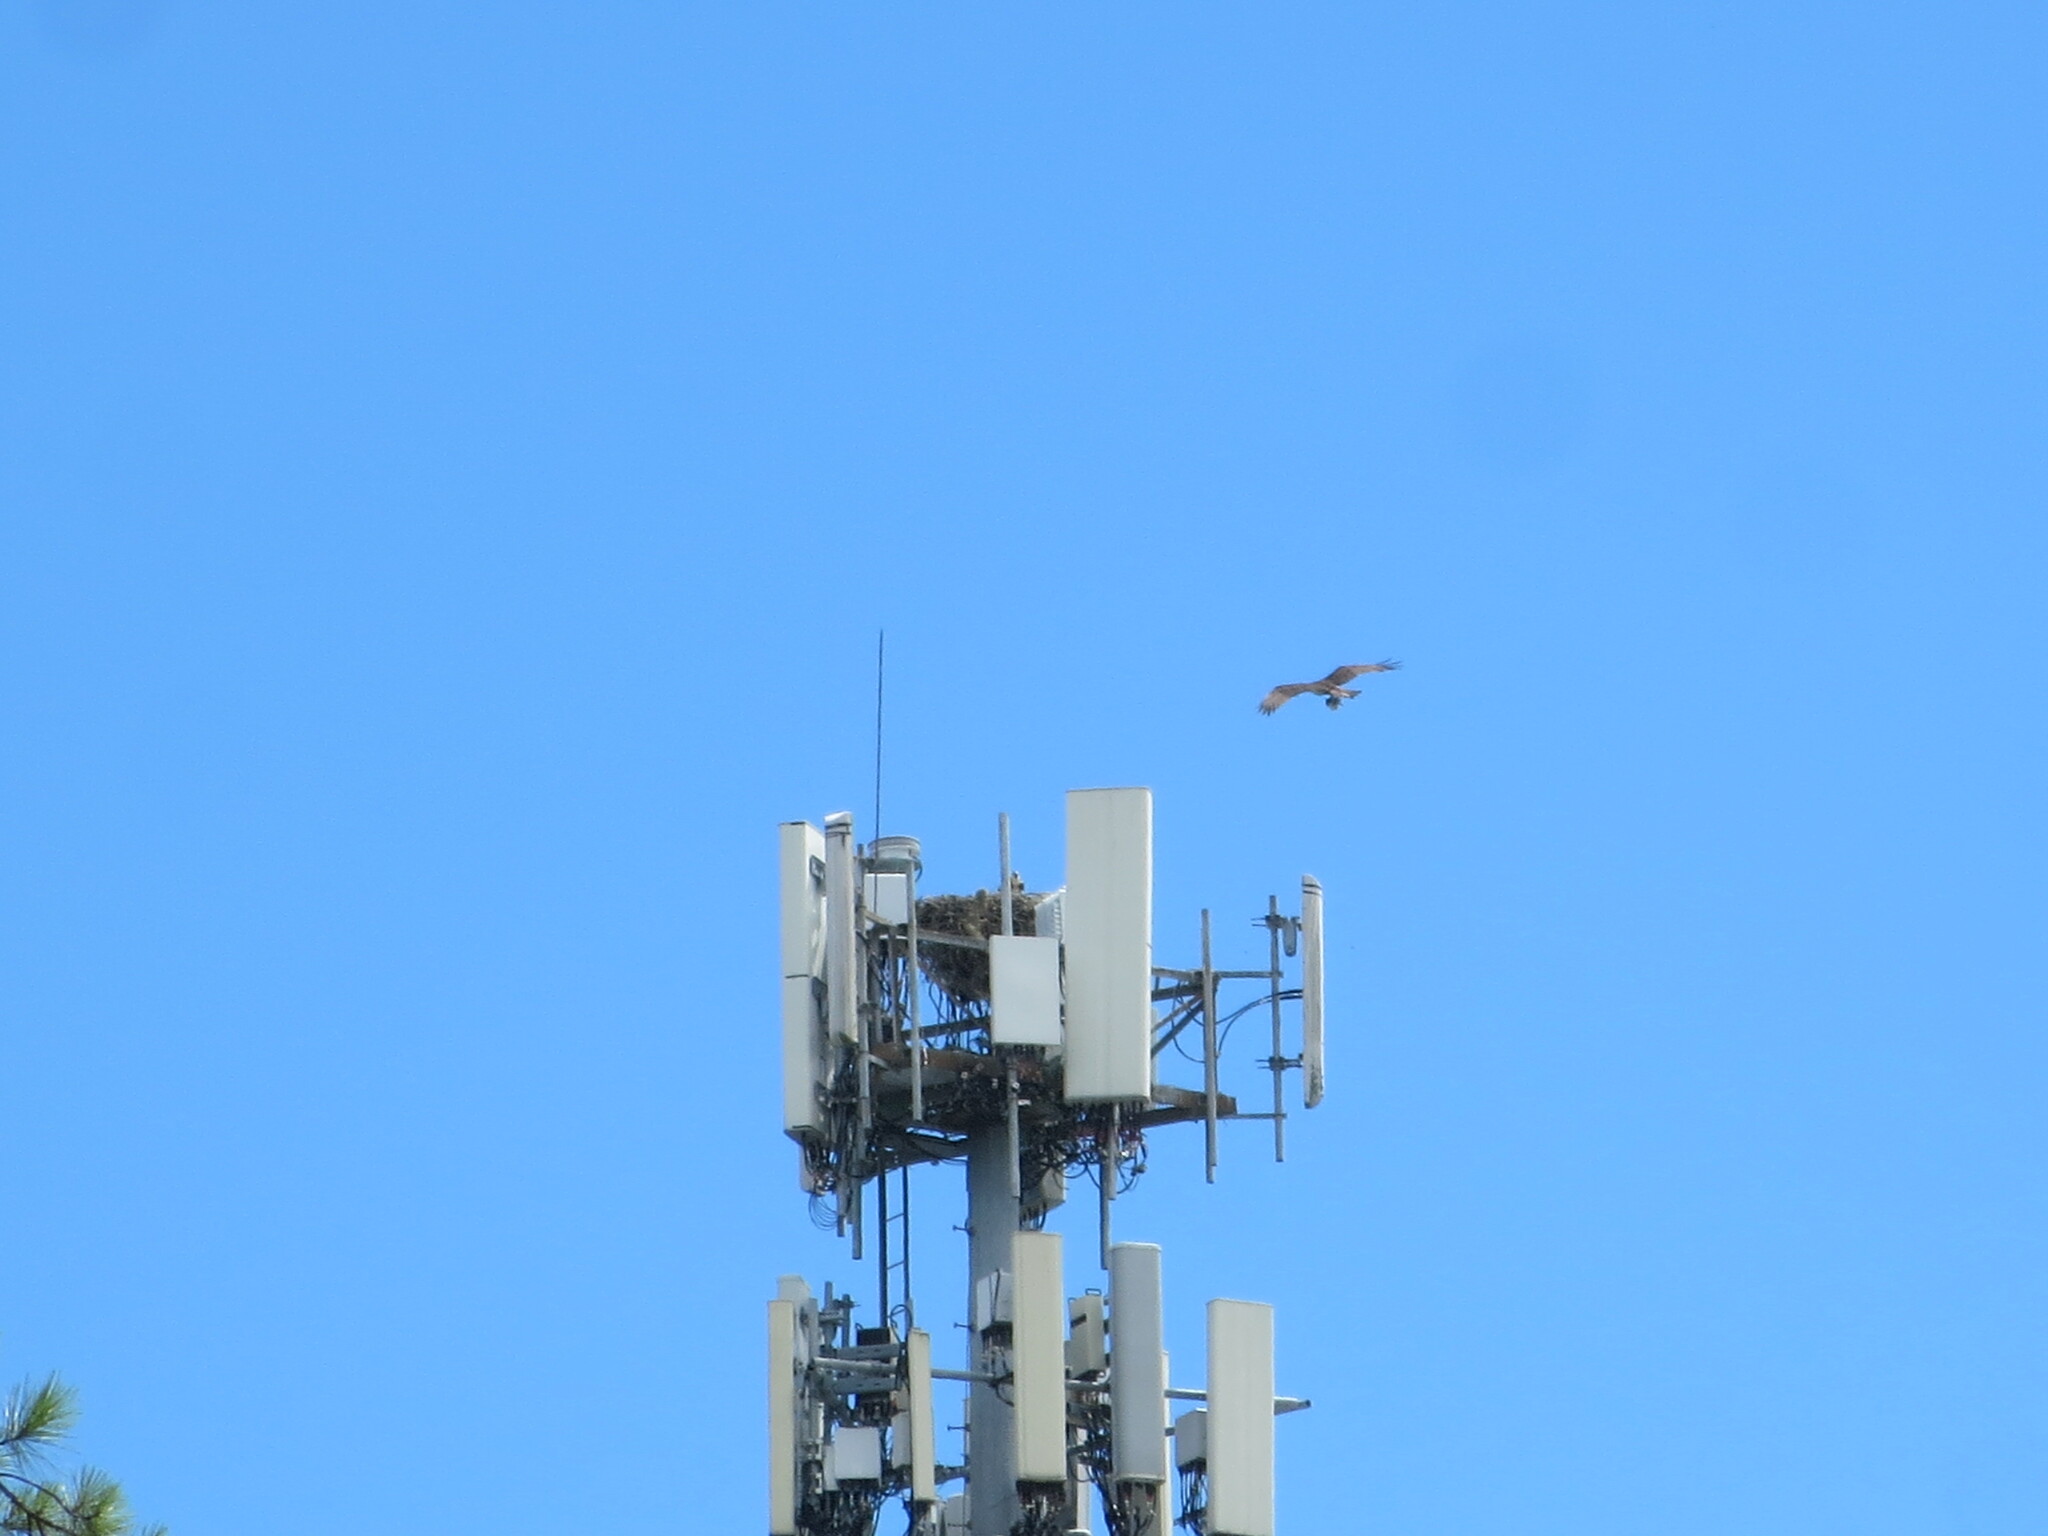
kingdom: Animalia
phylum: Chordata
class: Aves
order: Accipitriformes
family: Pandionidae
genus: Pandion
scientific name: Pandion haliaetus
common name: Osprey
